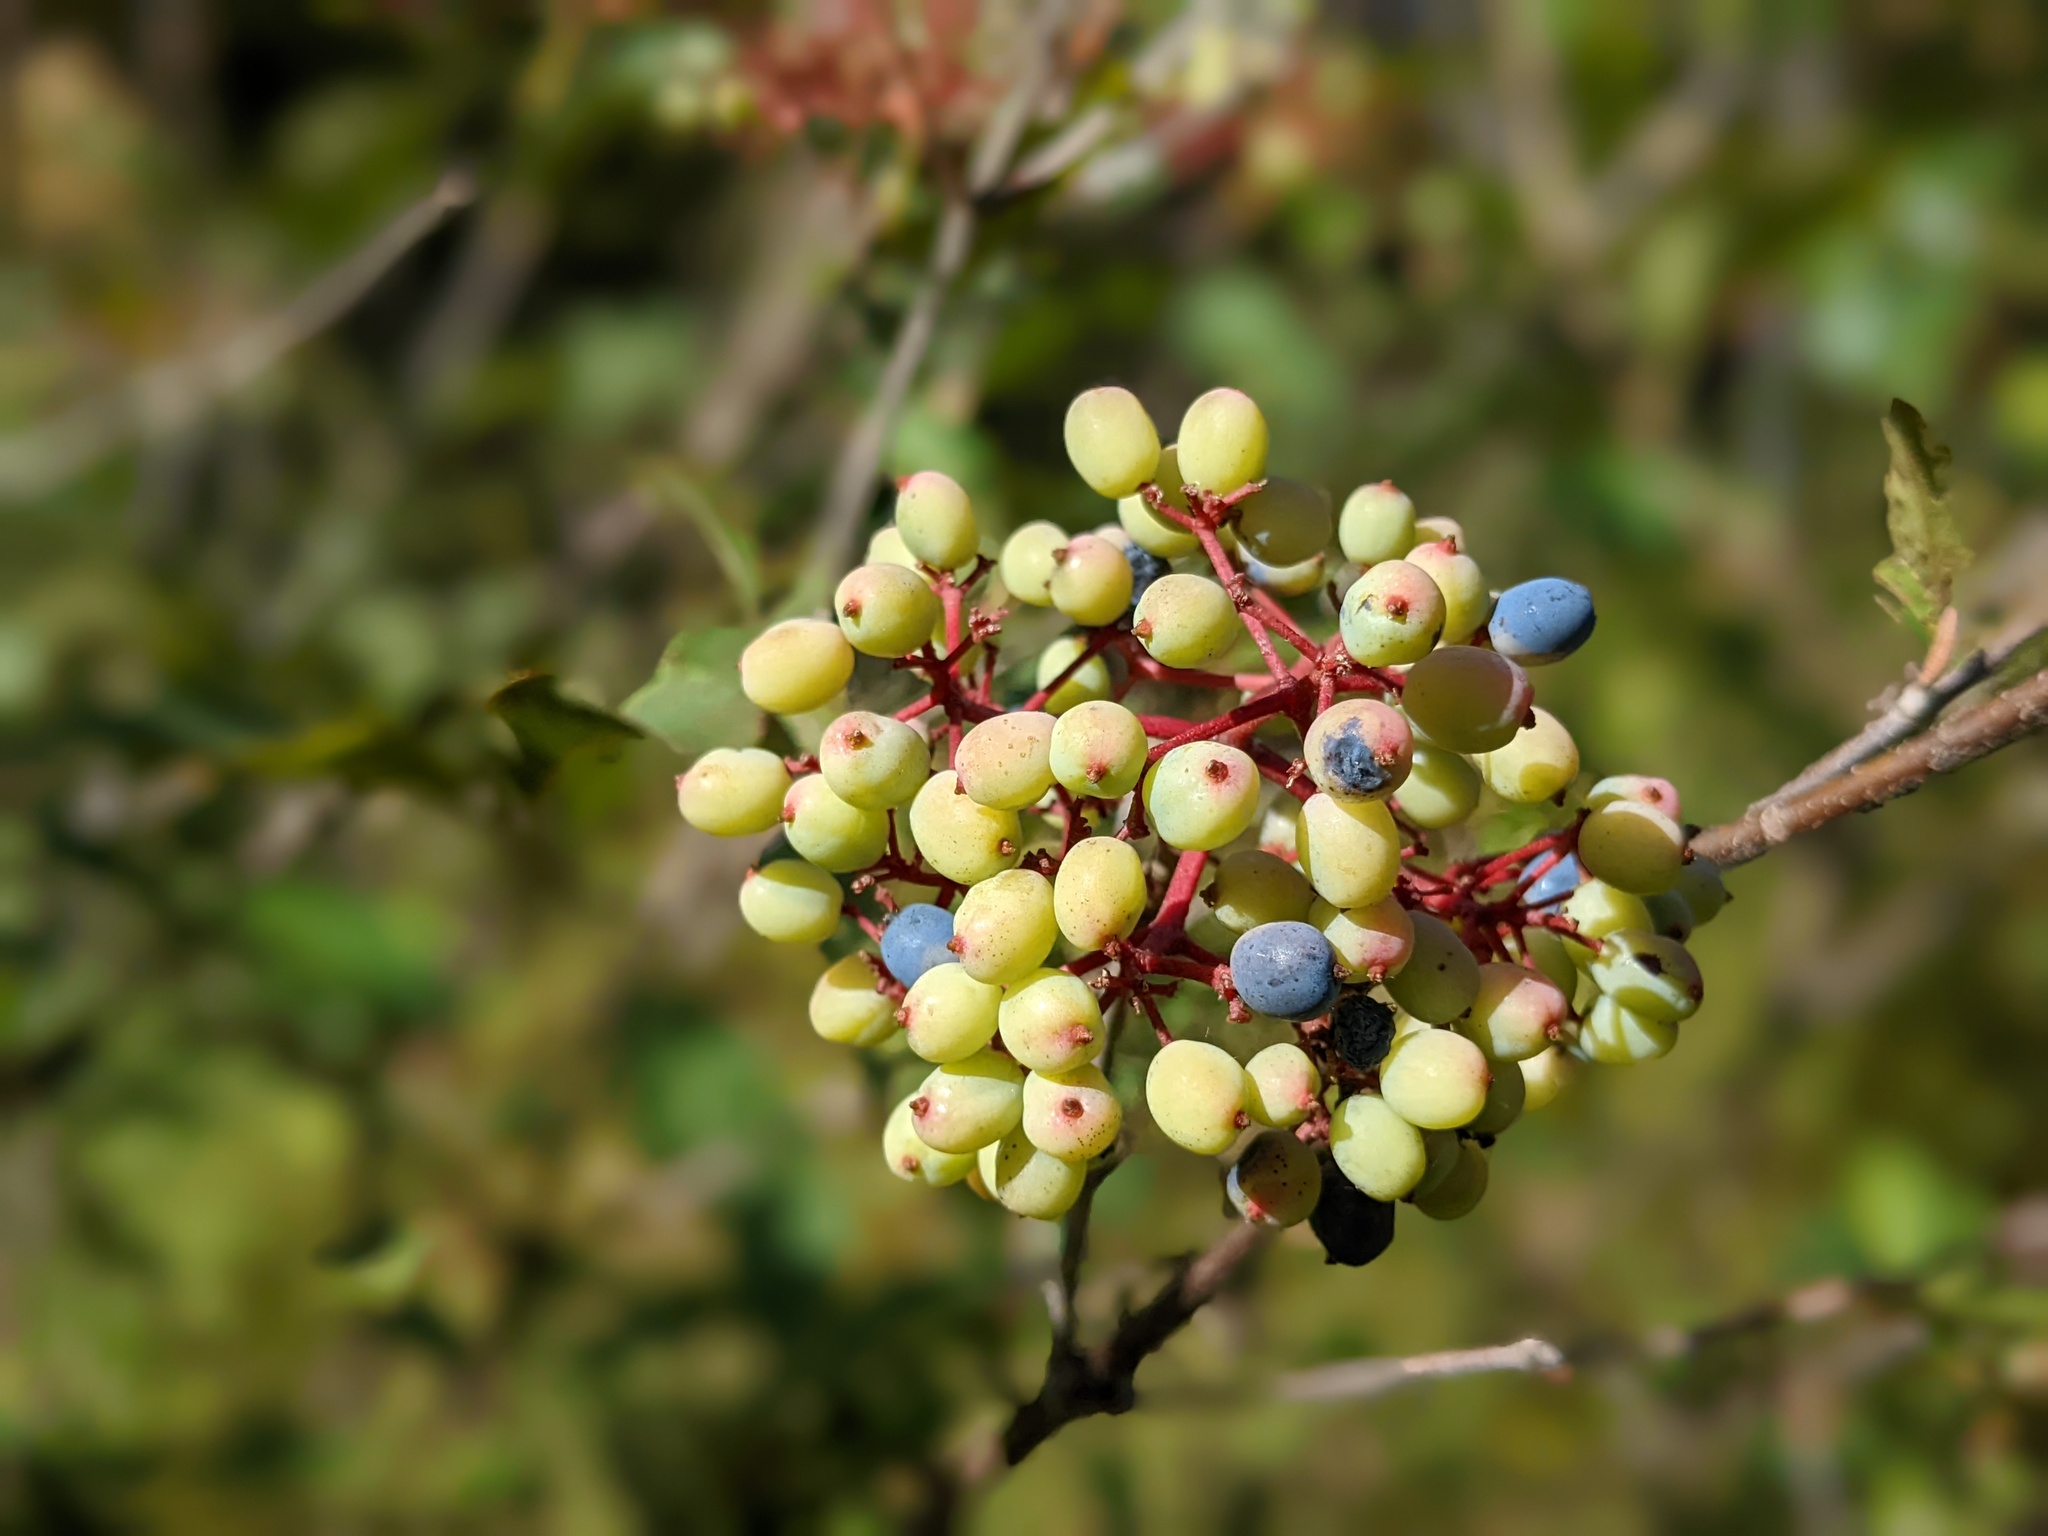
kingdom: Plantae
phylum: Tracheophyta
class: Magnoliopsida
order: Dipsacales
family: Viburnaceae
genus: Viburnum
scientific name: Viburnum cassinoides
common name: Swamp haw
